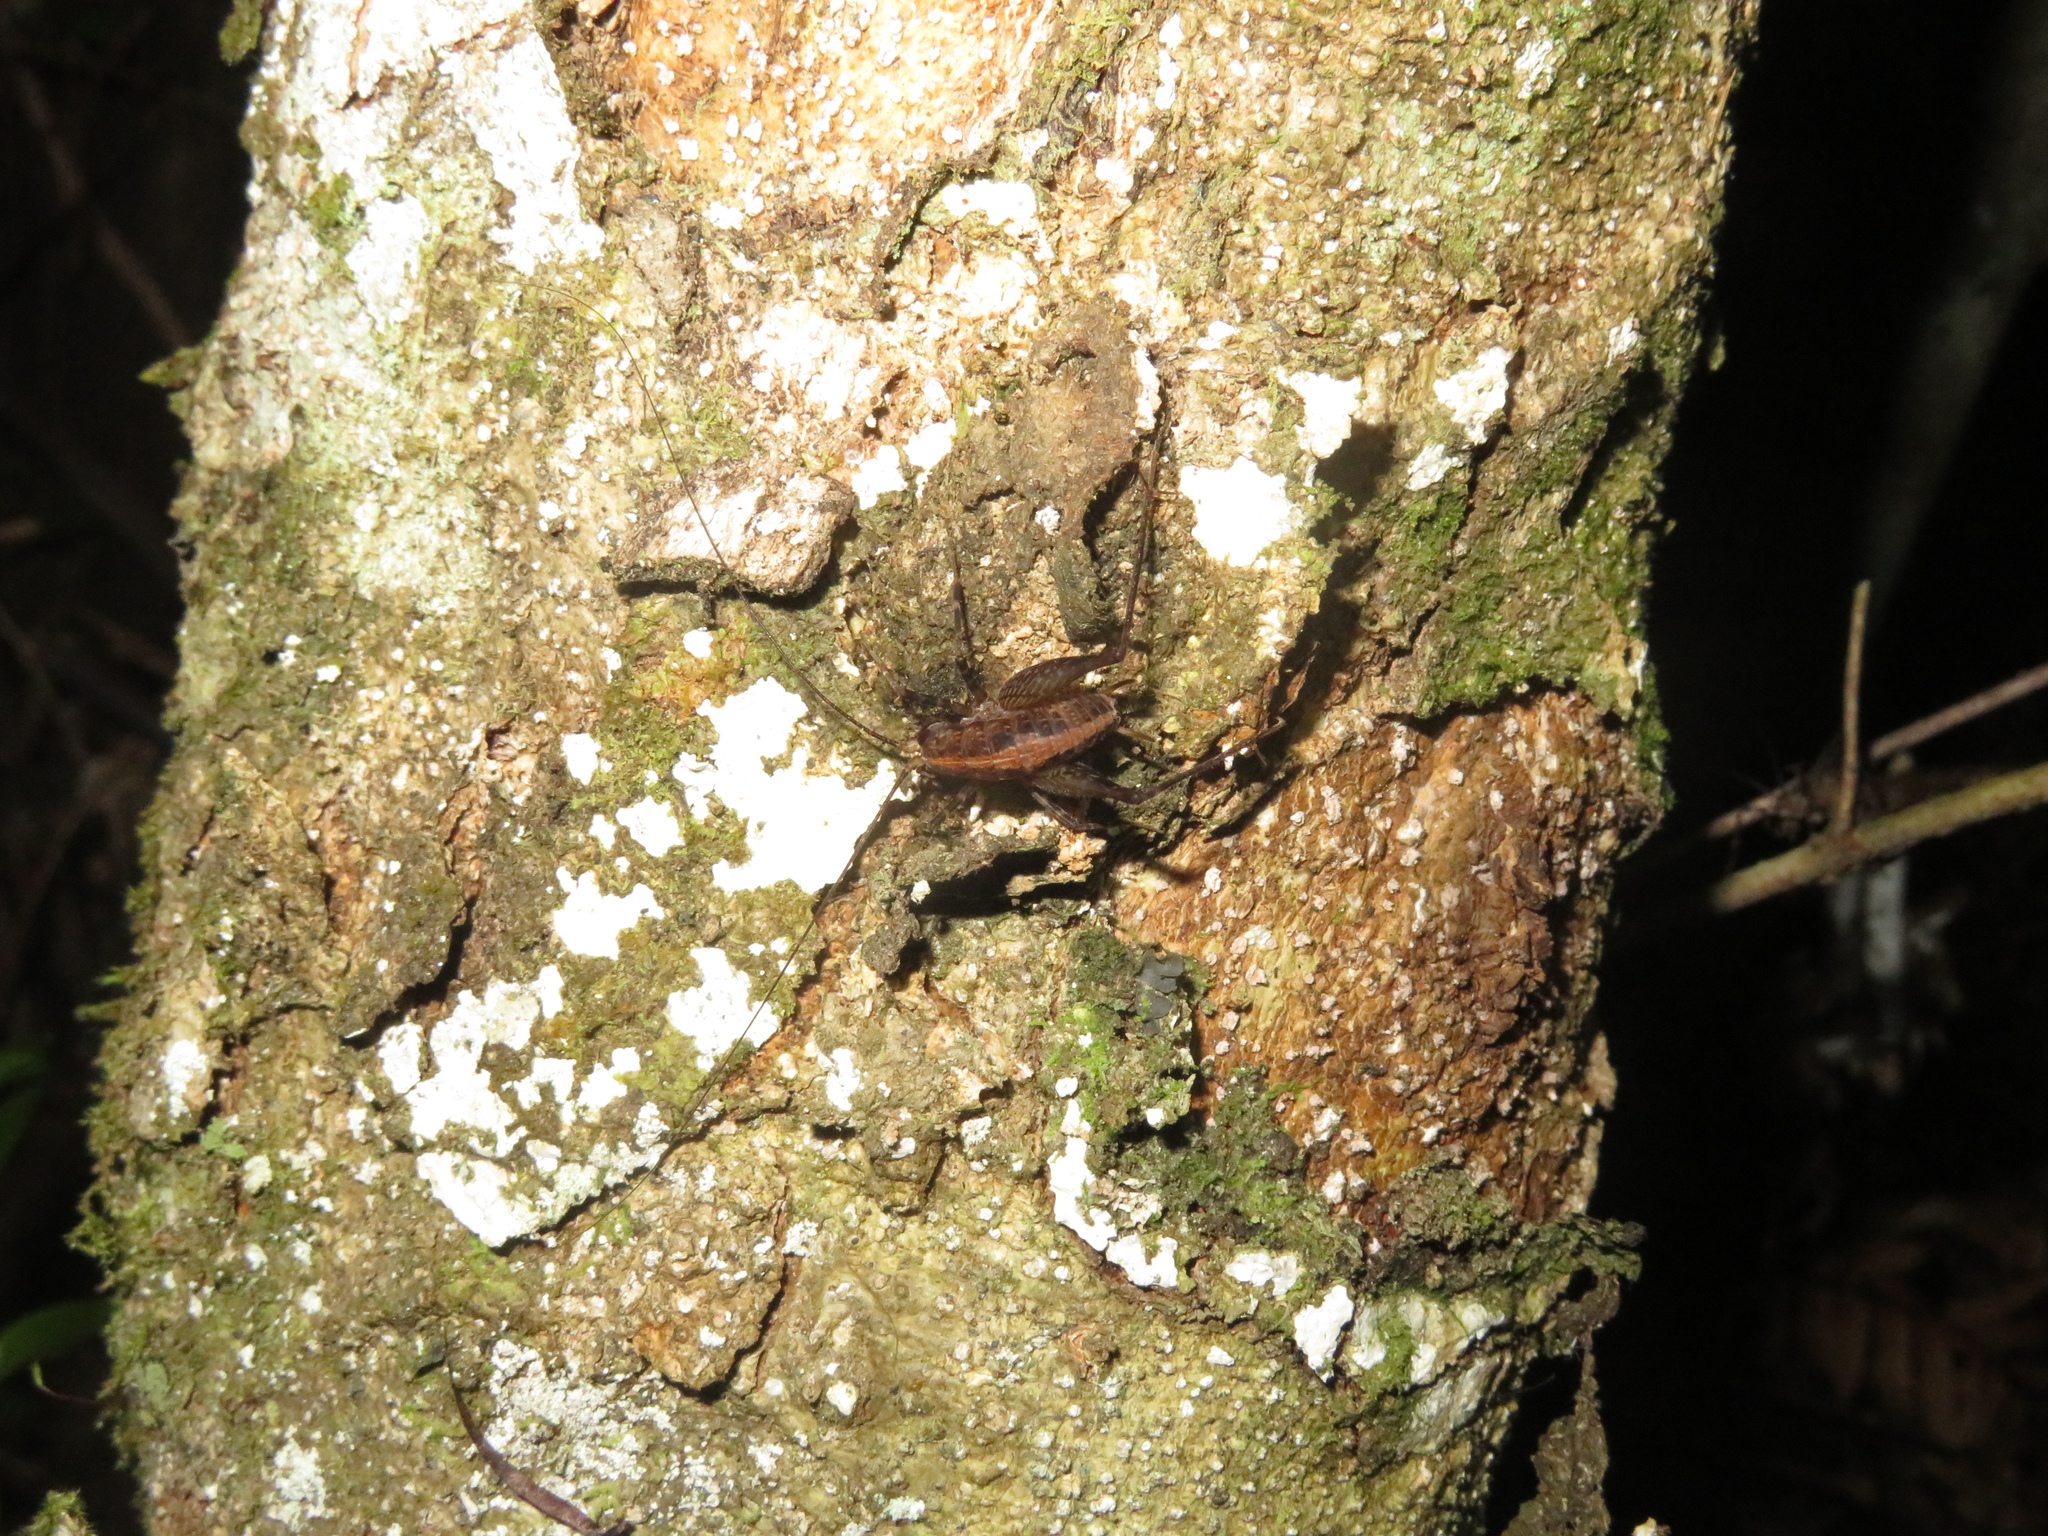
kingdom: Animalia
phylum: Arthropoda
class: Insecta
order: Orthoptera
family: Rhaphidophoridae
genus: Pleioplectron
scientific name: Pleioplectron hudsoni
